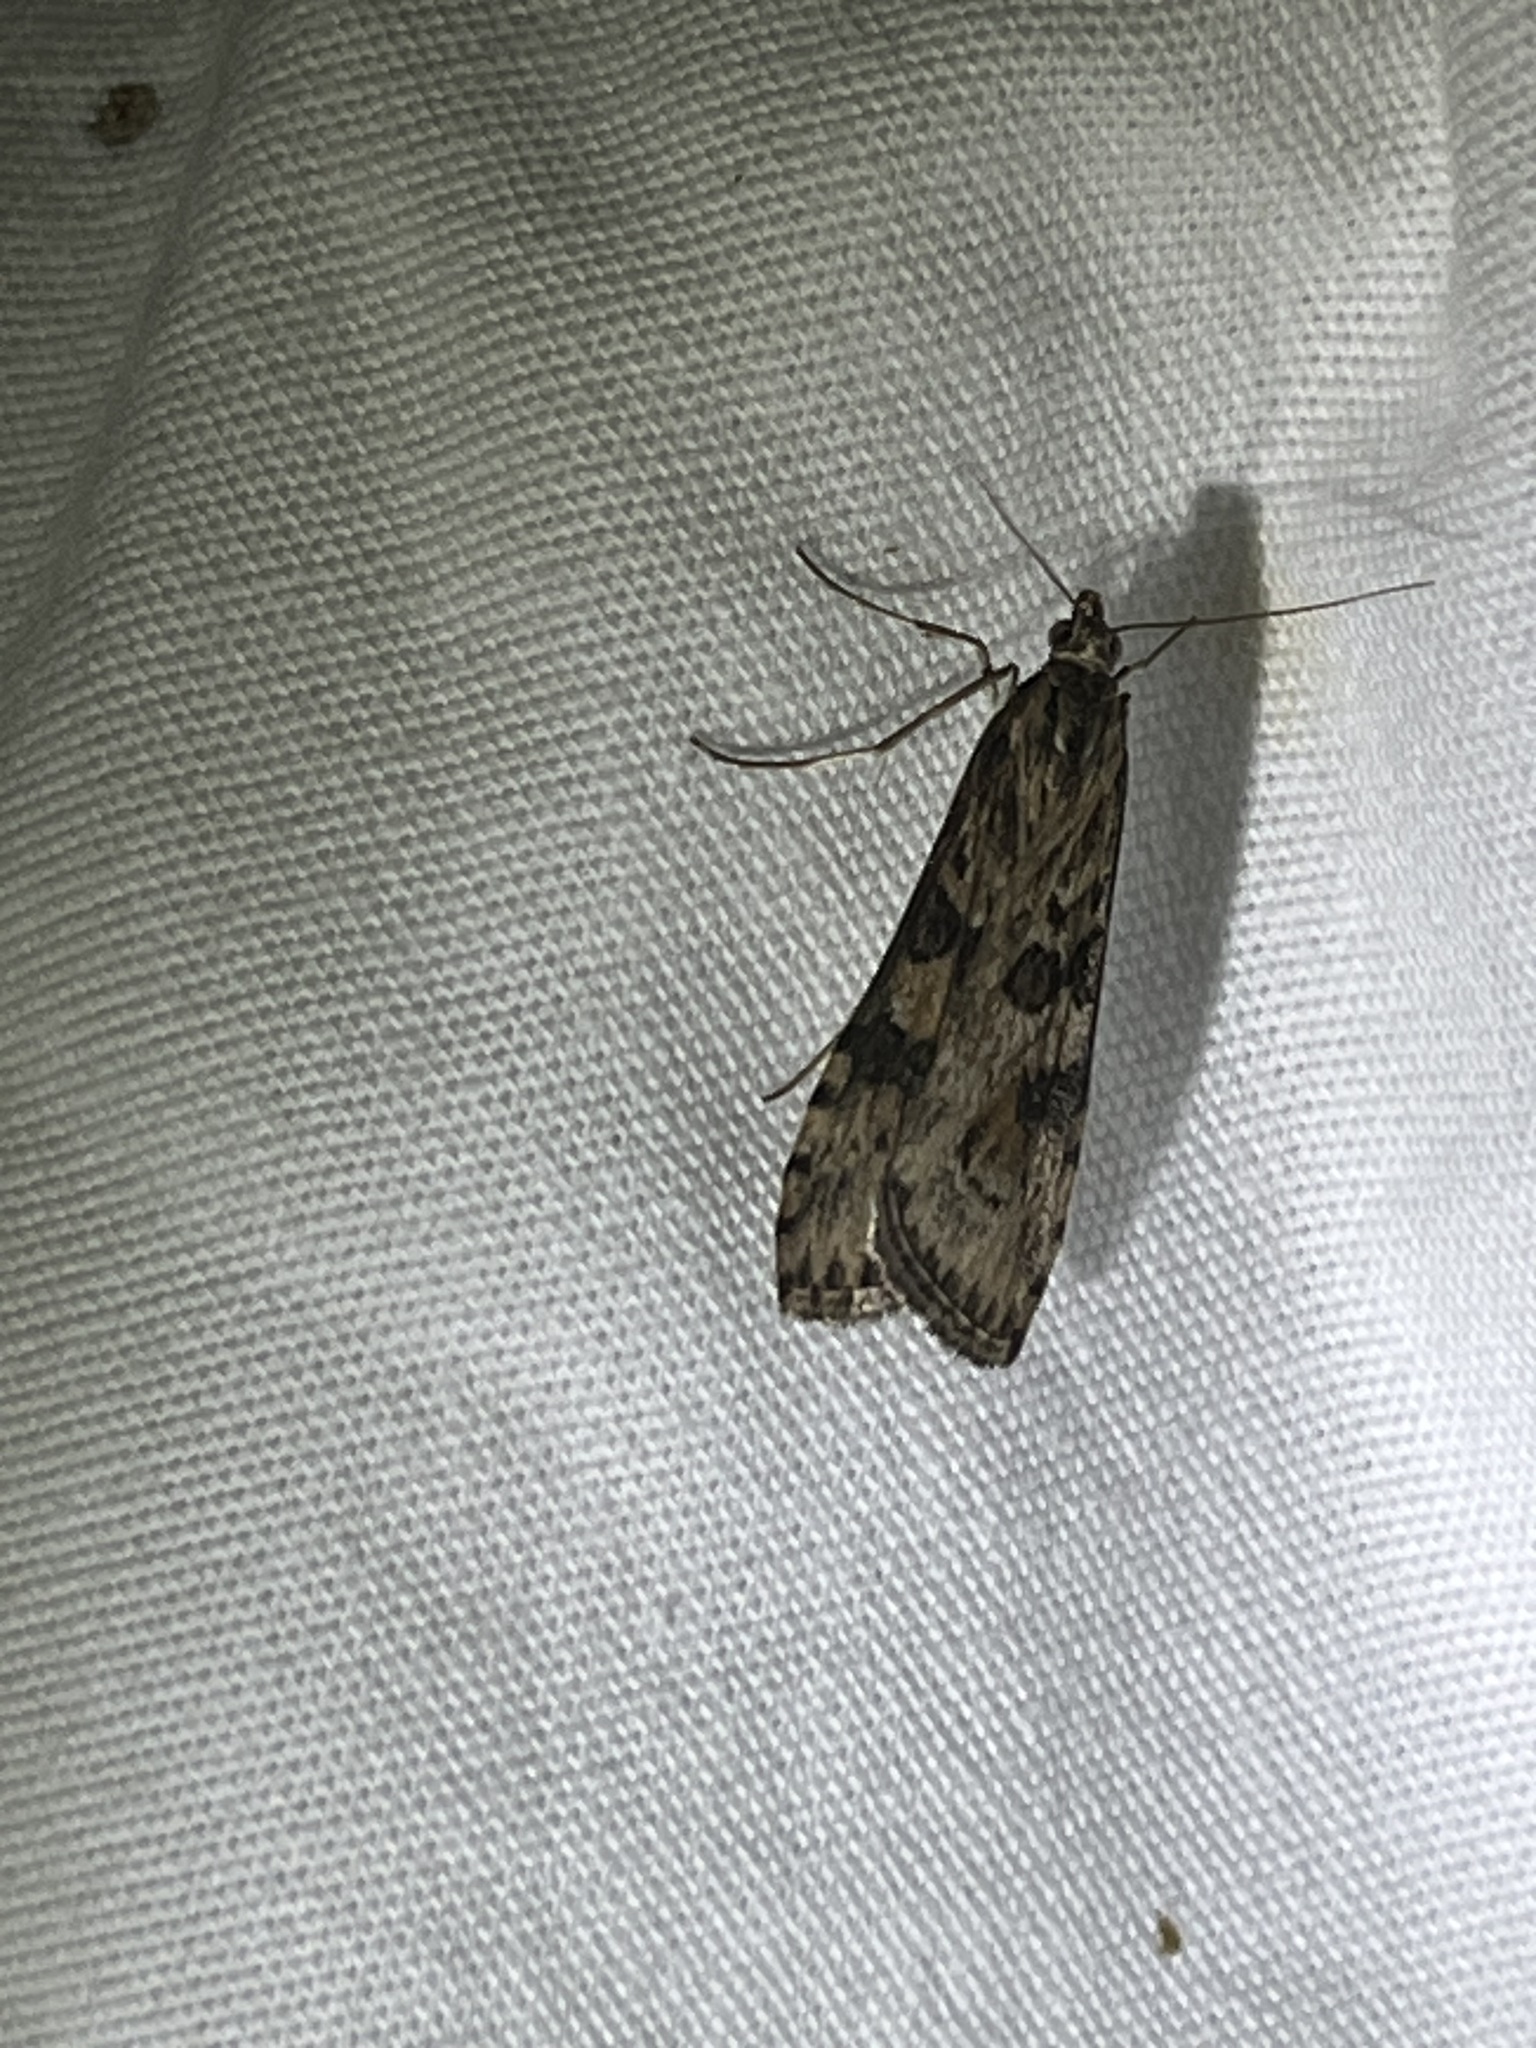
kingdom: Animalia
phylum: Arthropoda
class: Insecta
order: Lepidoptera
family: Crambidae
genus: Nomophila
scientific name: Nomophila nearctica
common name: American rush veneer
